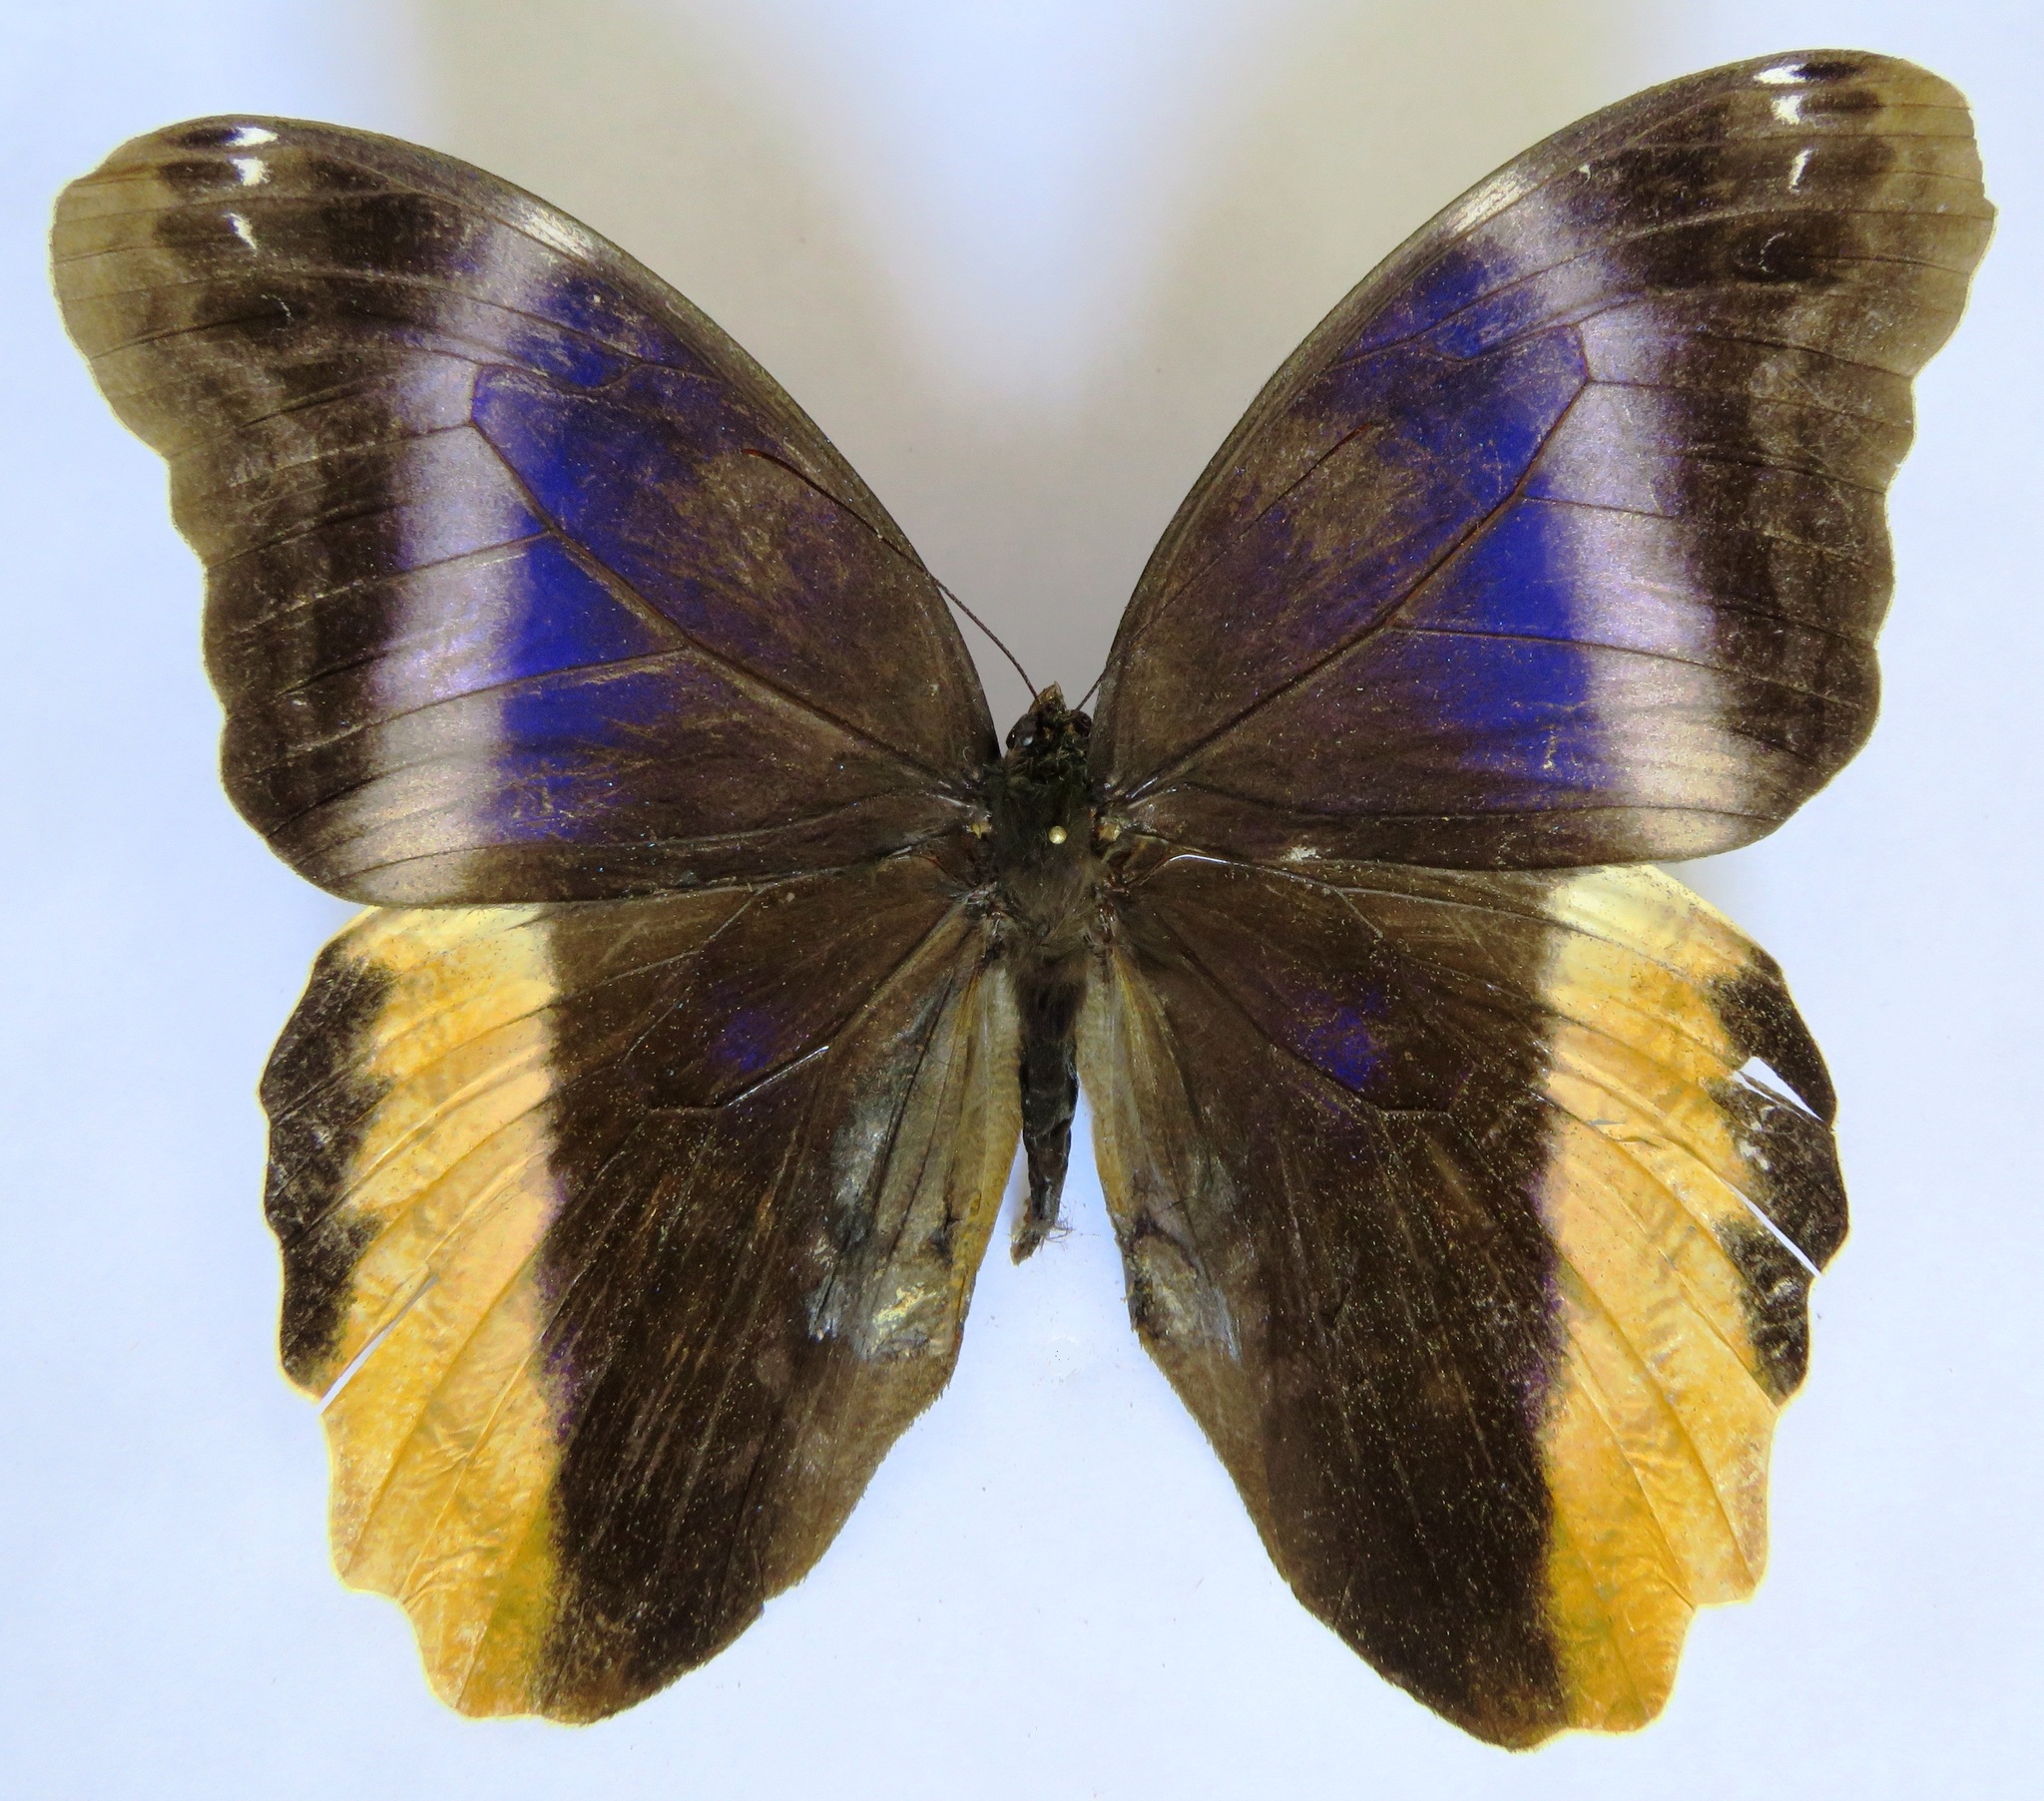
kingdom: Animalia
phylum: Arthropoda
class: Insecta
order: Lepidoptera
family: Nymphalidae
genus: Caligo
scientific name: Caligo atreus
